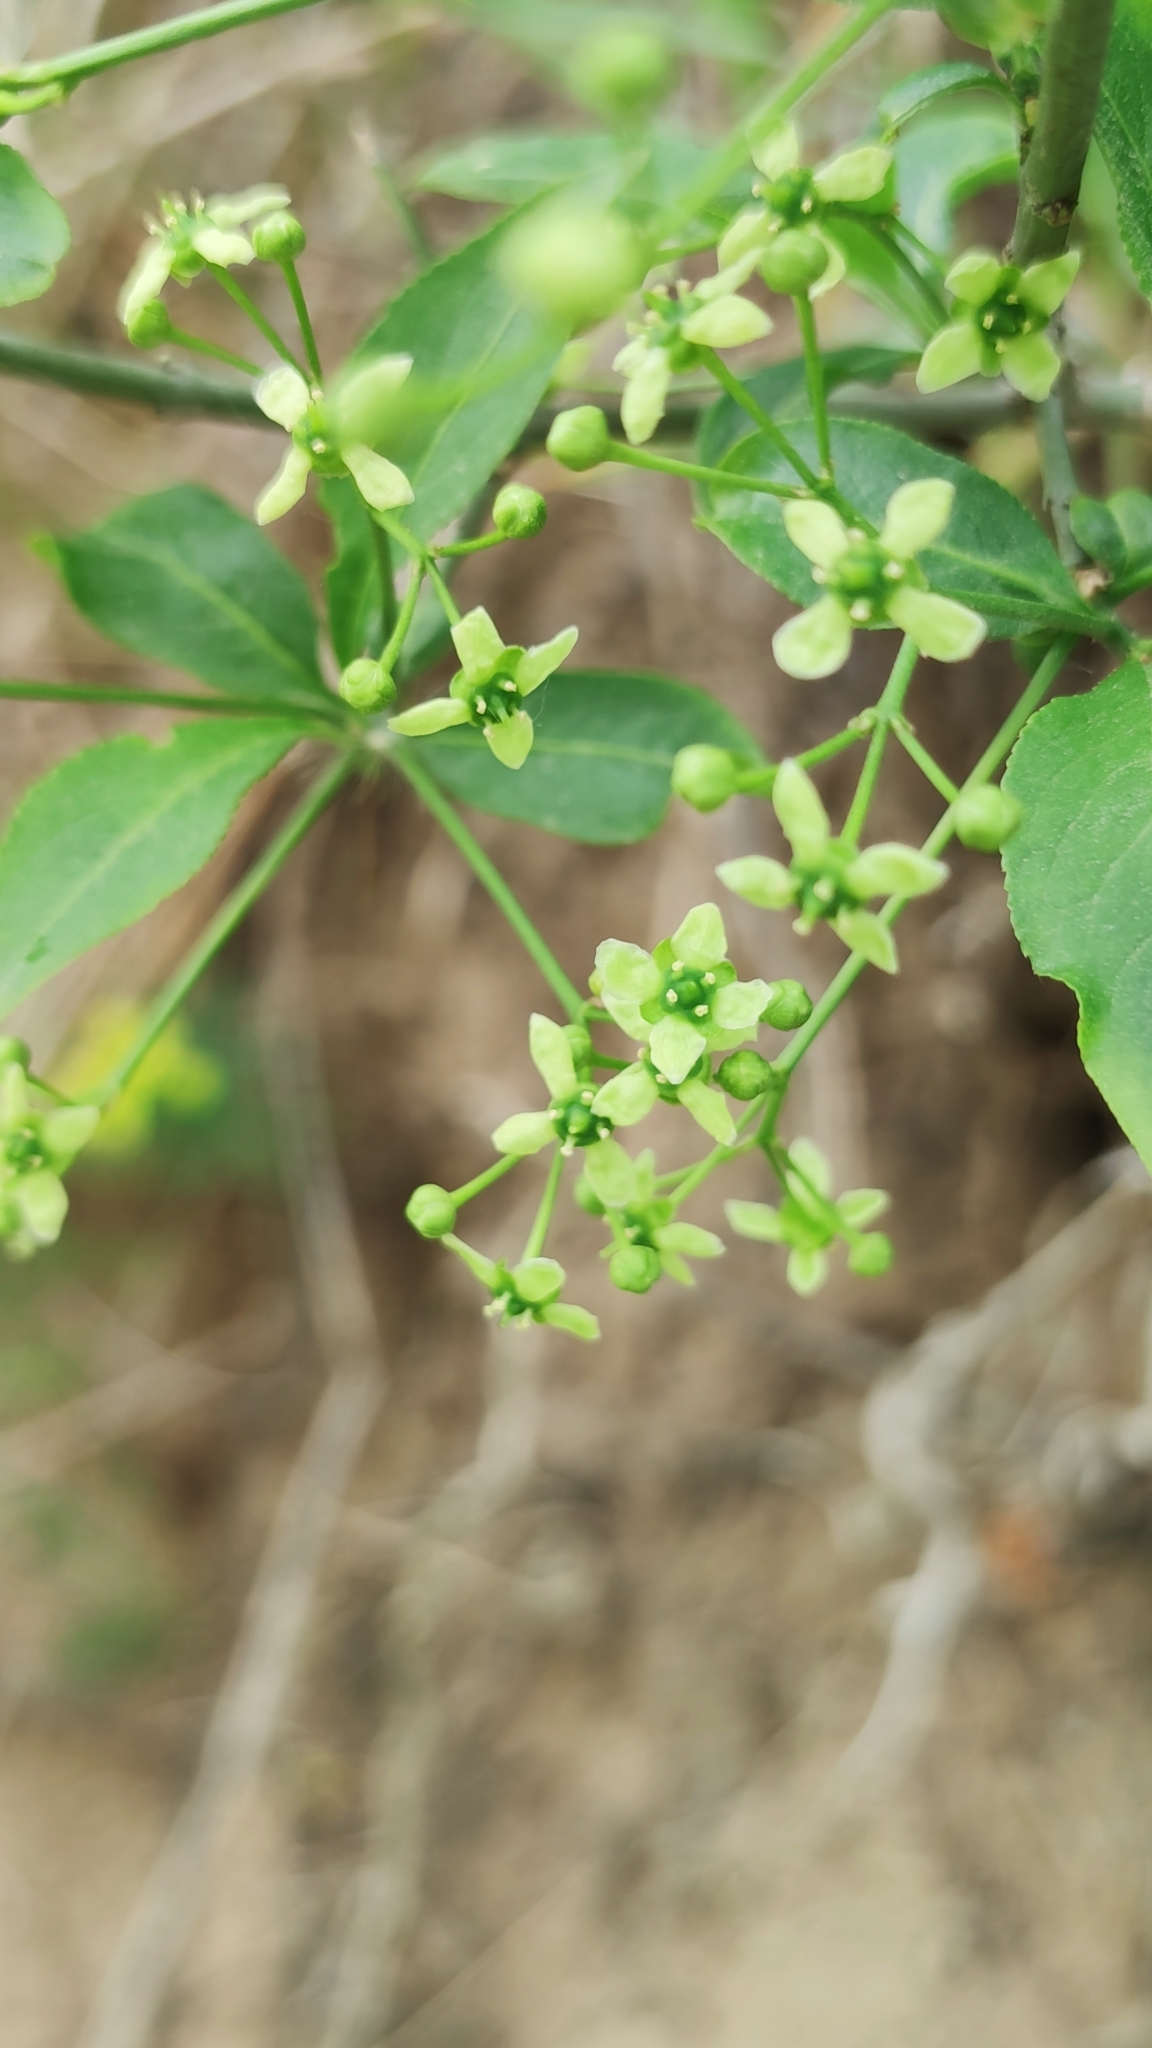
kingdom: Plantae
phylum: Tracheophyta
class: Magnoliopsida
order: Celastrales
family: Celastraceae
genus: Euonymus
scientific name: Euonymus europaeus
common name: Spindle
